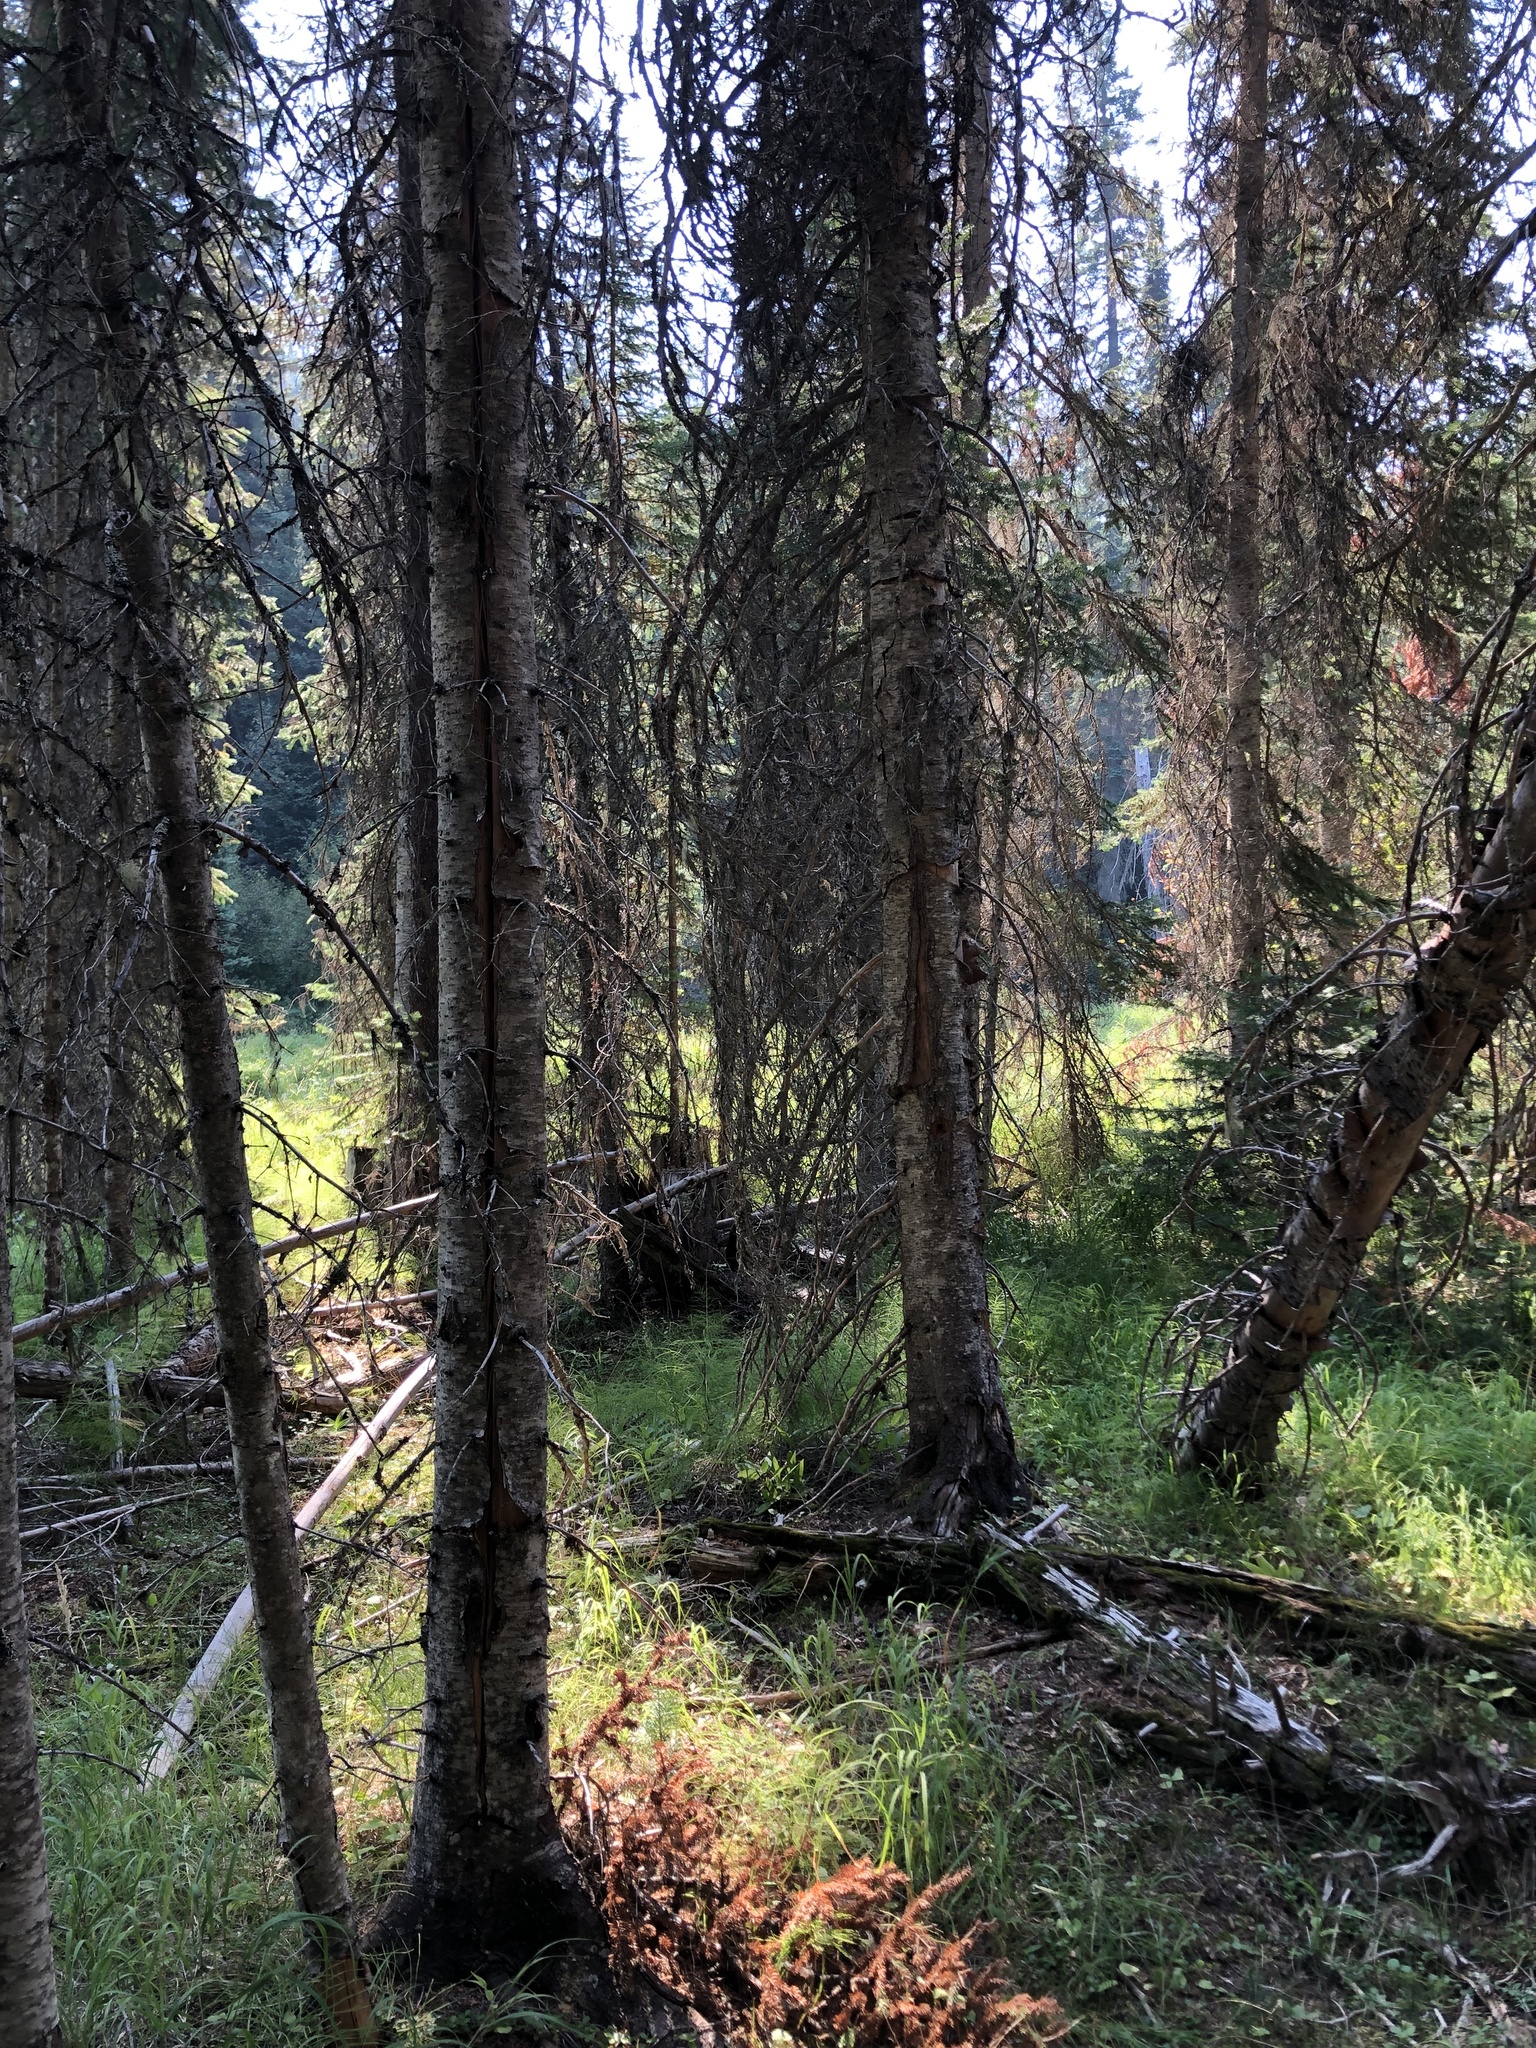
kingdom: Plantae
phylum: Tracheophyta
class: Polypodiopsida
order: Equisetales
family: Equisetaceae
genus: Equisetum
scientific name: Equisetum sylvaticum
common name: Wood horsetail
